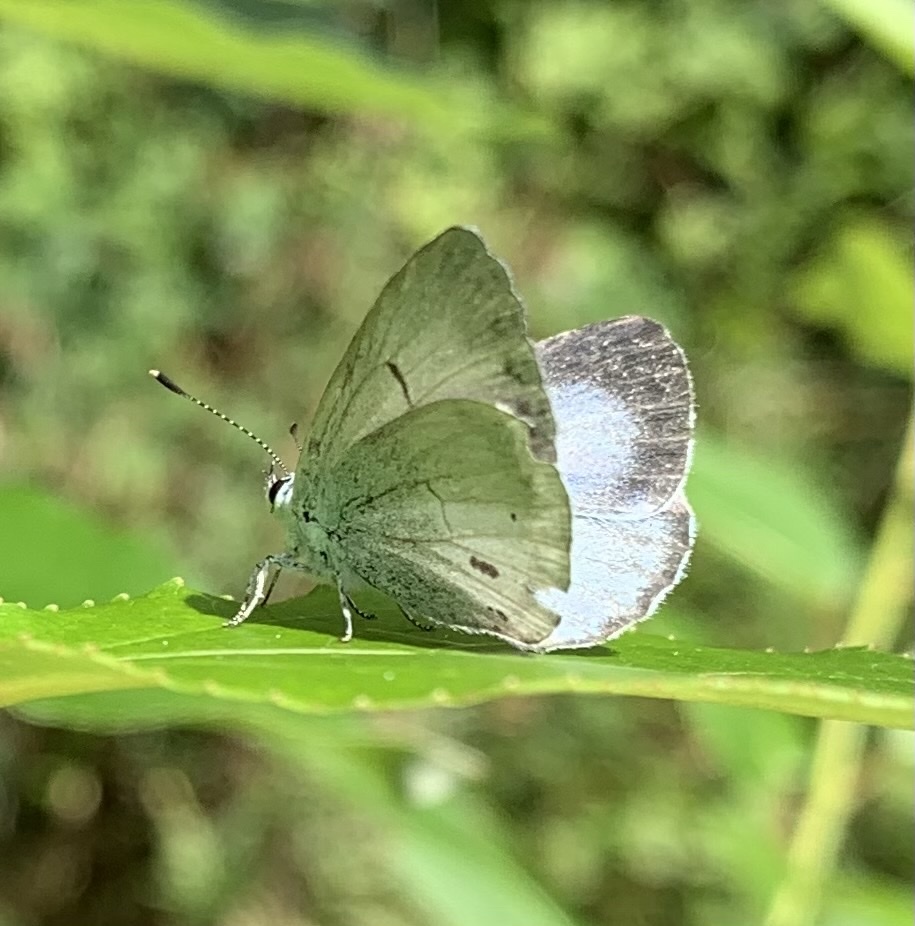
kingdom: Animalia
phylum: Arthropoda
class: Insecta
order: Lepidoptera
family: Lycaenidae
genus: Celastrina
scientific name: Celastrina argiolus
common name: Holly blue
